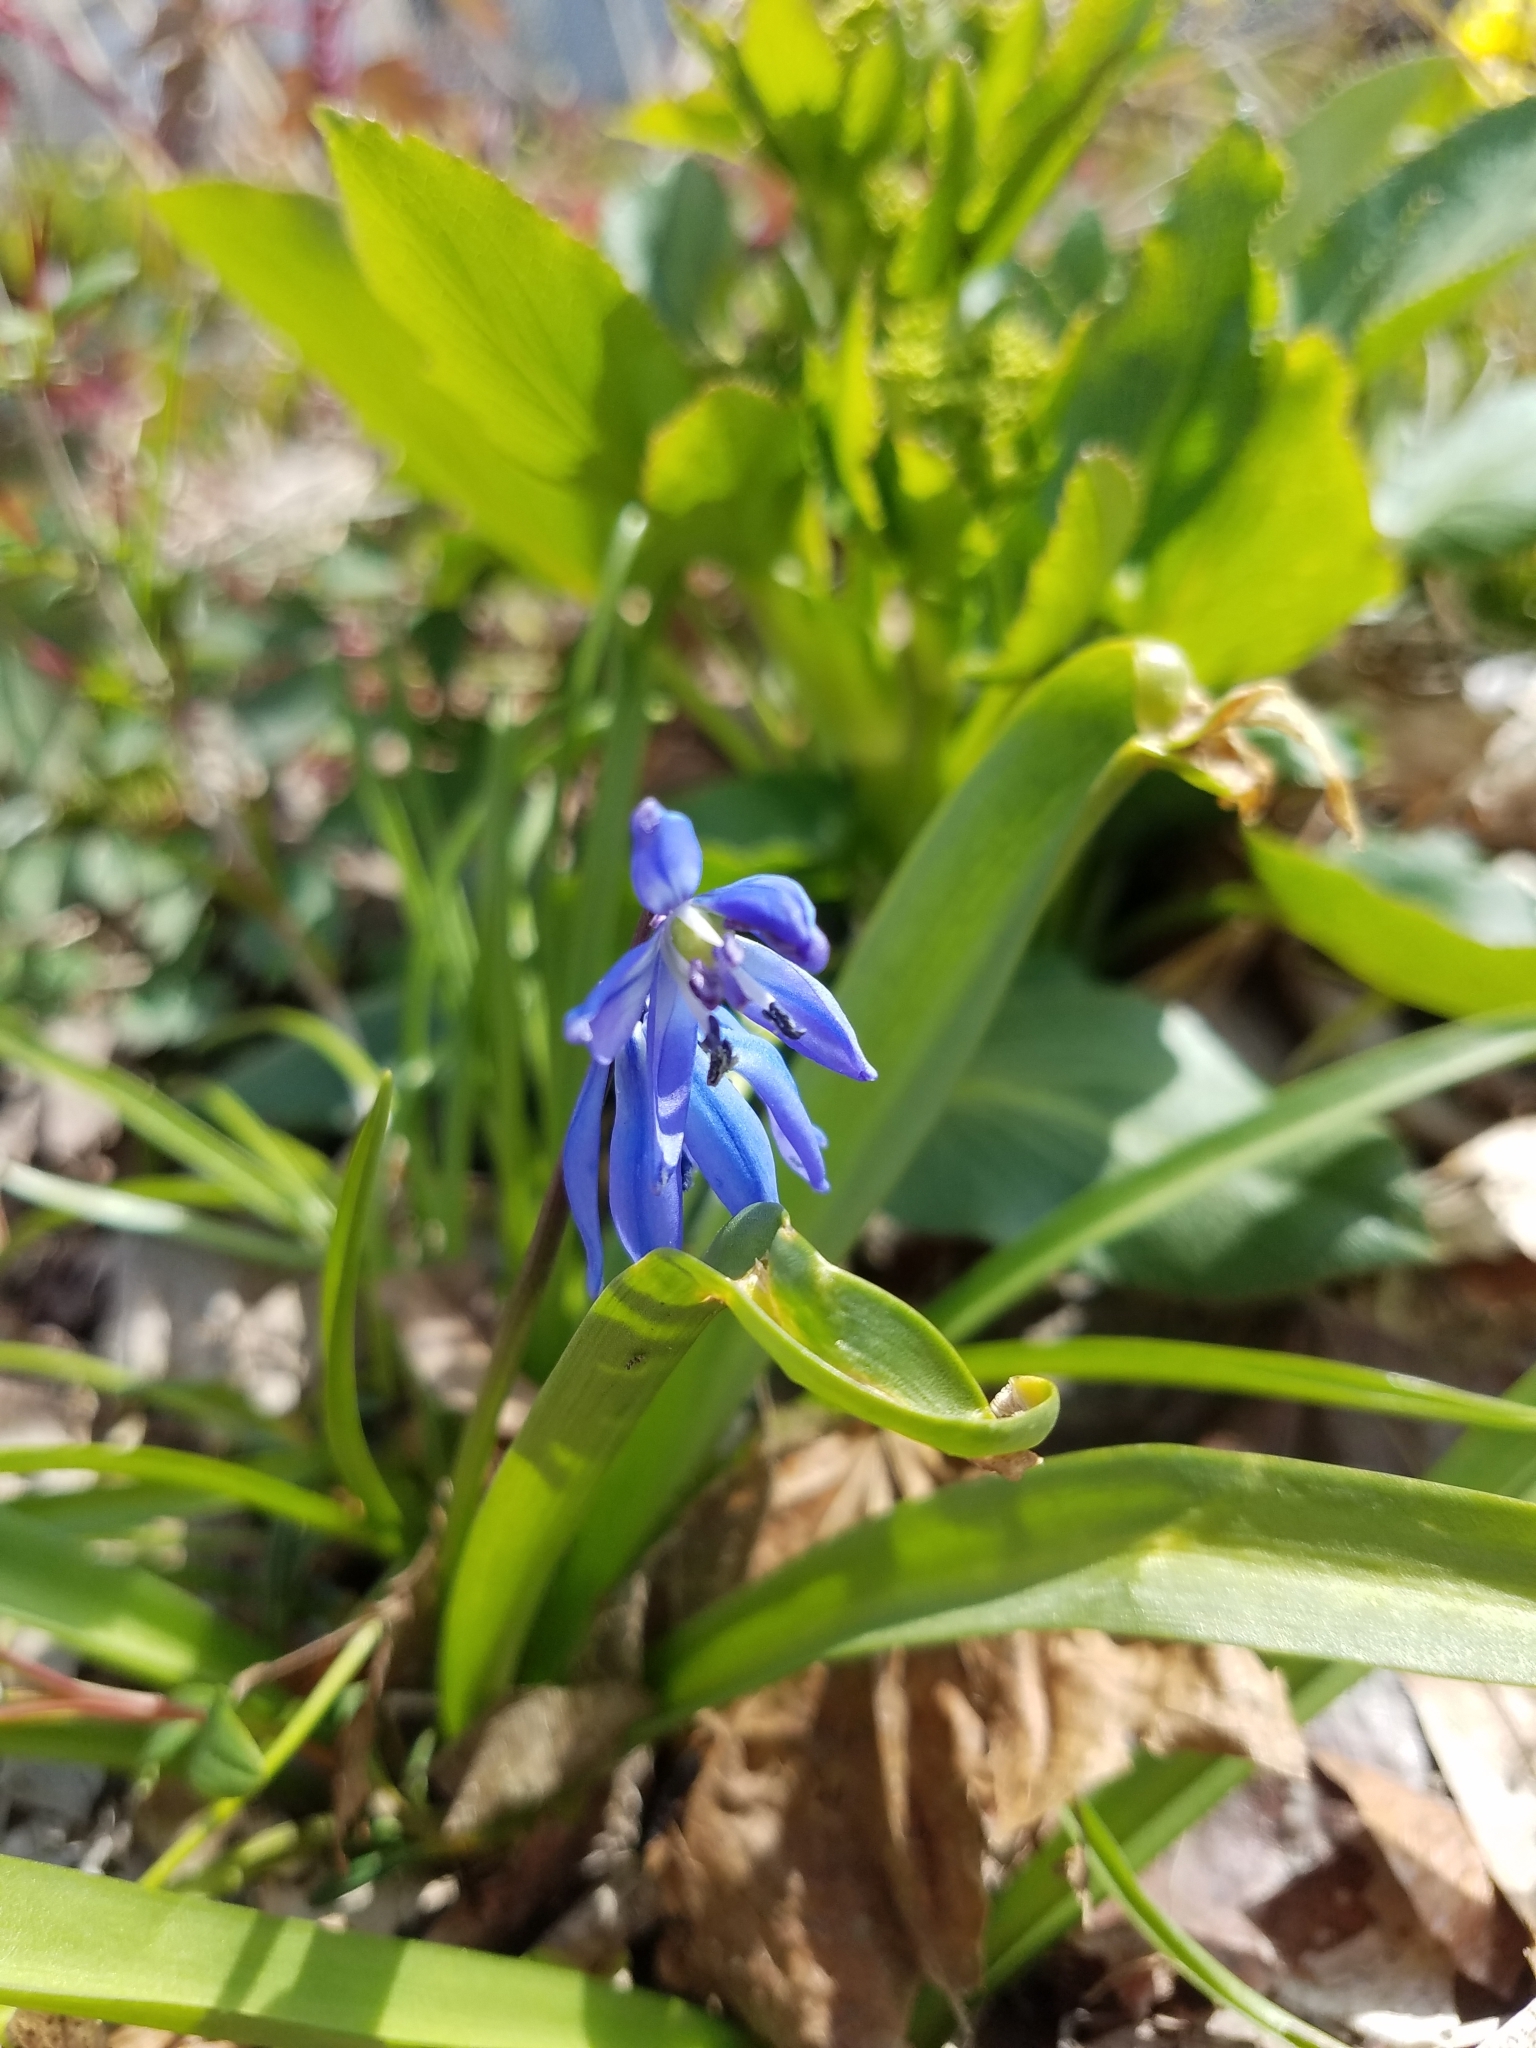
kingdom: Plantae
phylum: Tracheophyta
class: Liliopsida
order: Asparagales
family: Asparagaceae
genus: Scilla
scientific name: Scilla siberica
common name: Siberian squill
